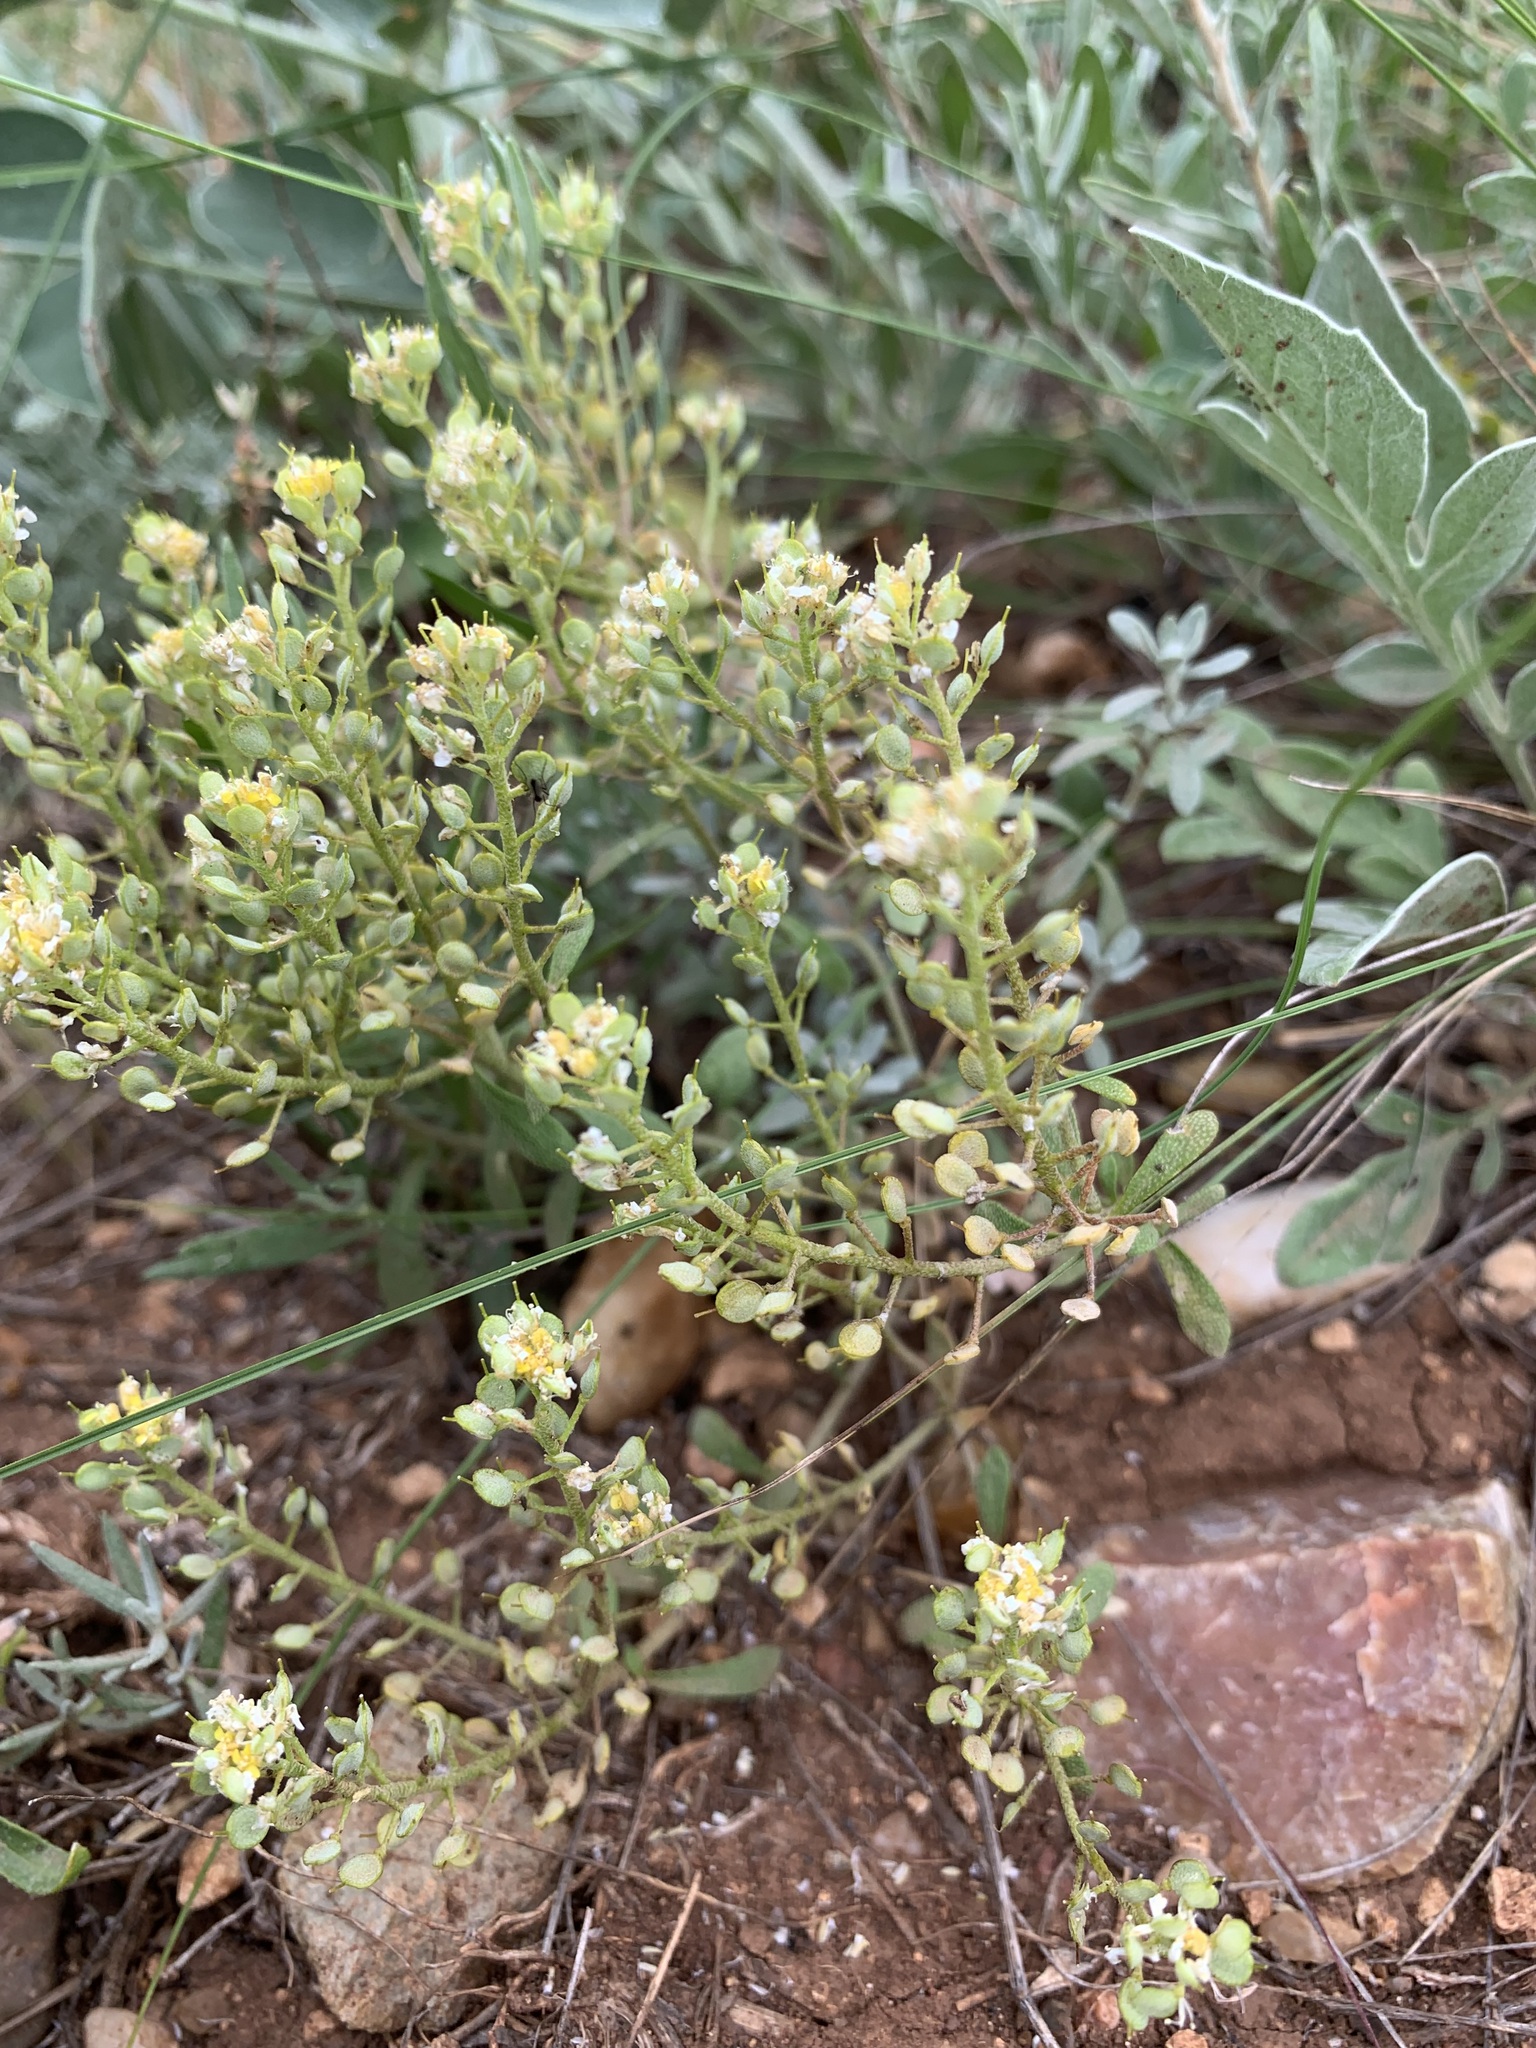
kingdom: Plantae
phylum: Tracheophyta
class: Magnoliopsida
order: Brassicales
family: Brassicaceae
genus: Odontarrhena
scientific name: Odontarrhena tortuosa
